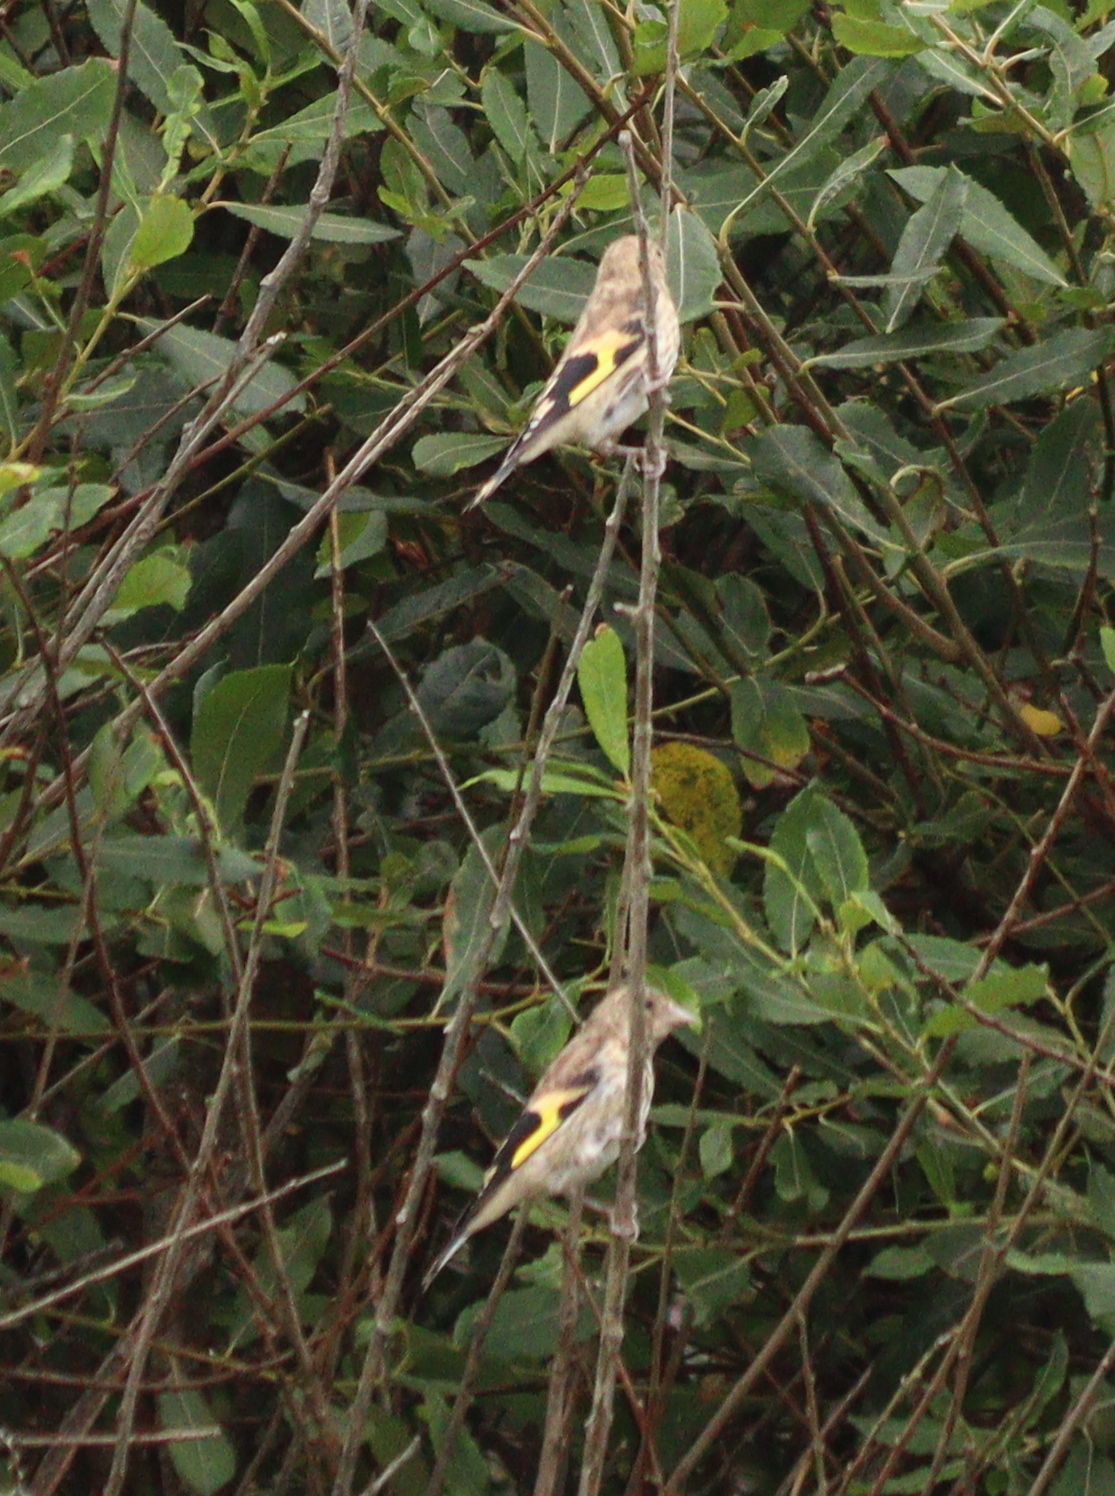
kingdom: Animalia
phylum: Chordata
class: Aves
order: Passeriformes
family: Fringillidae
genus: Carduelis
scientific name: Carduelis carduelis
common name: European goldfinch
